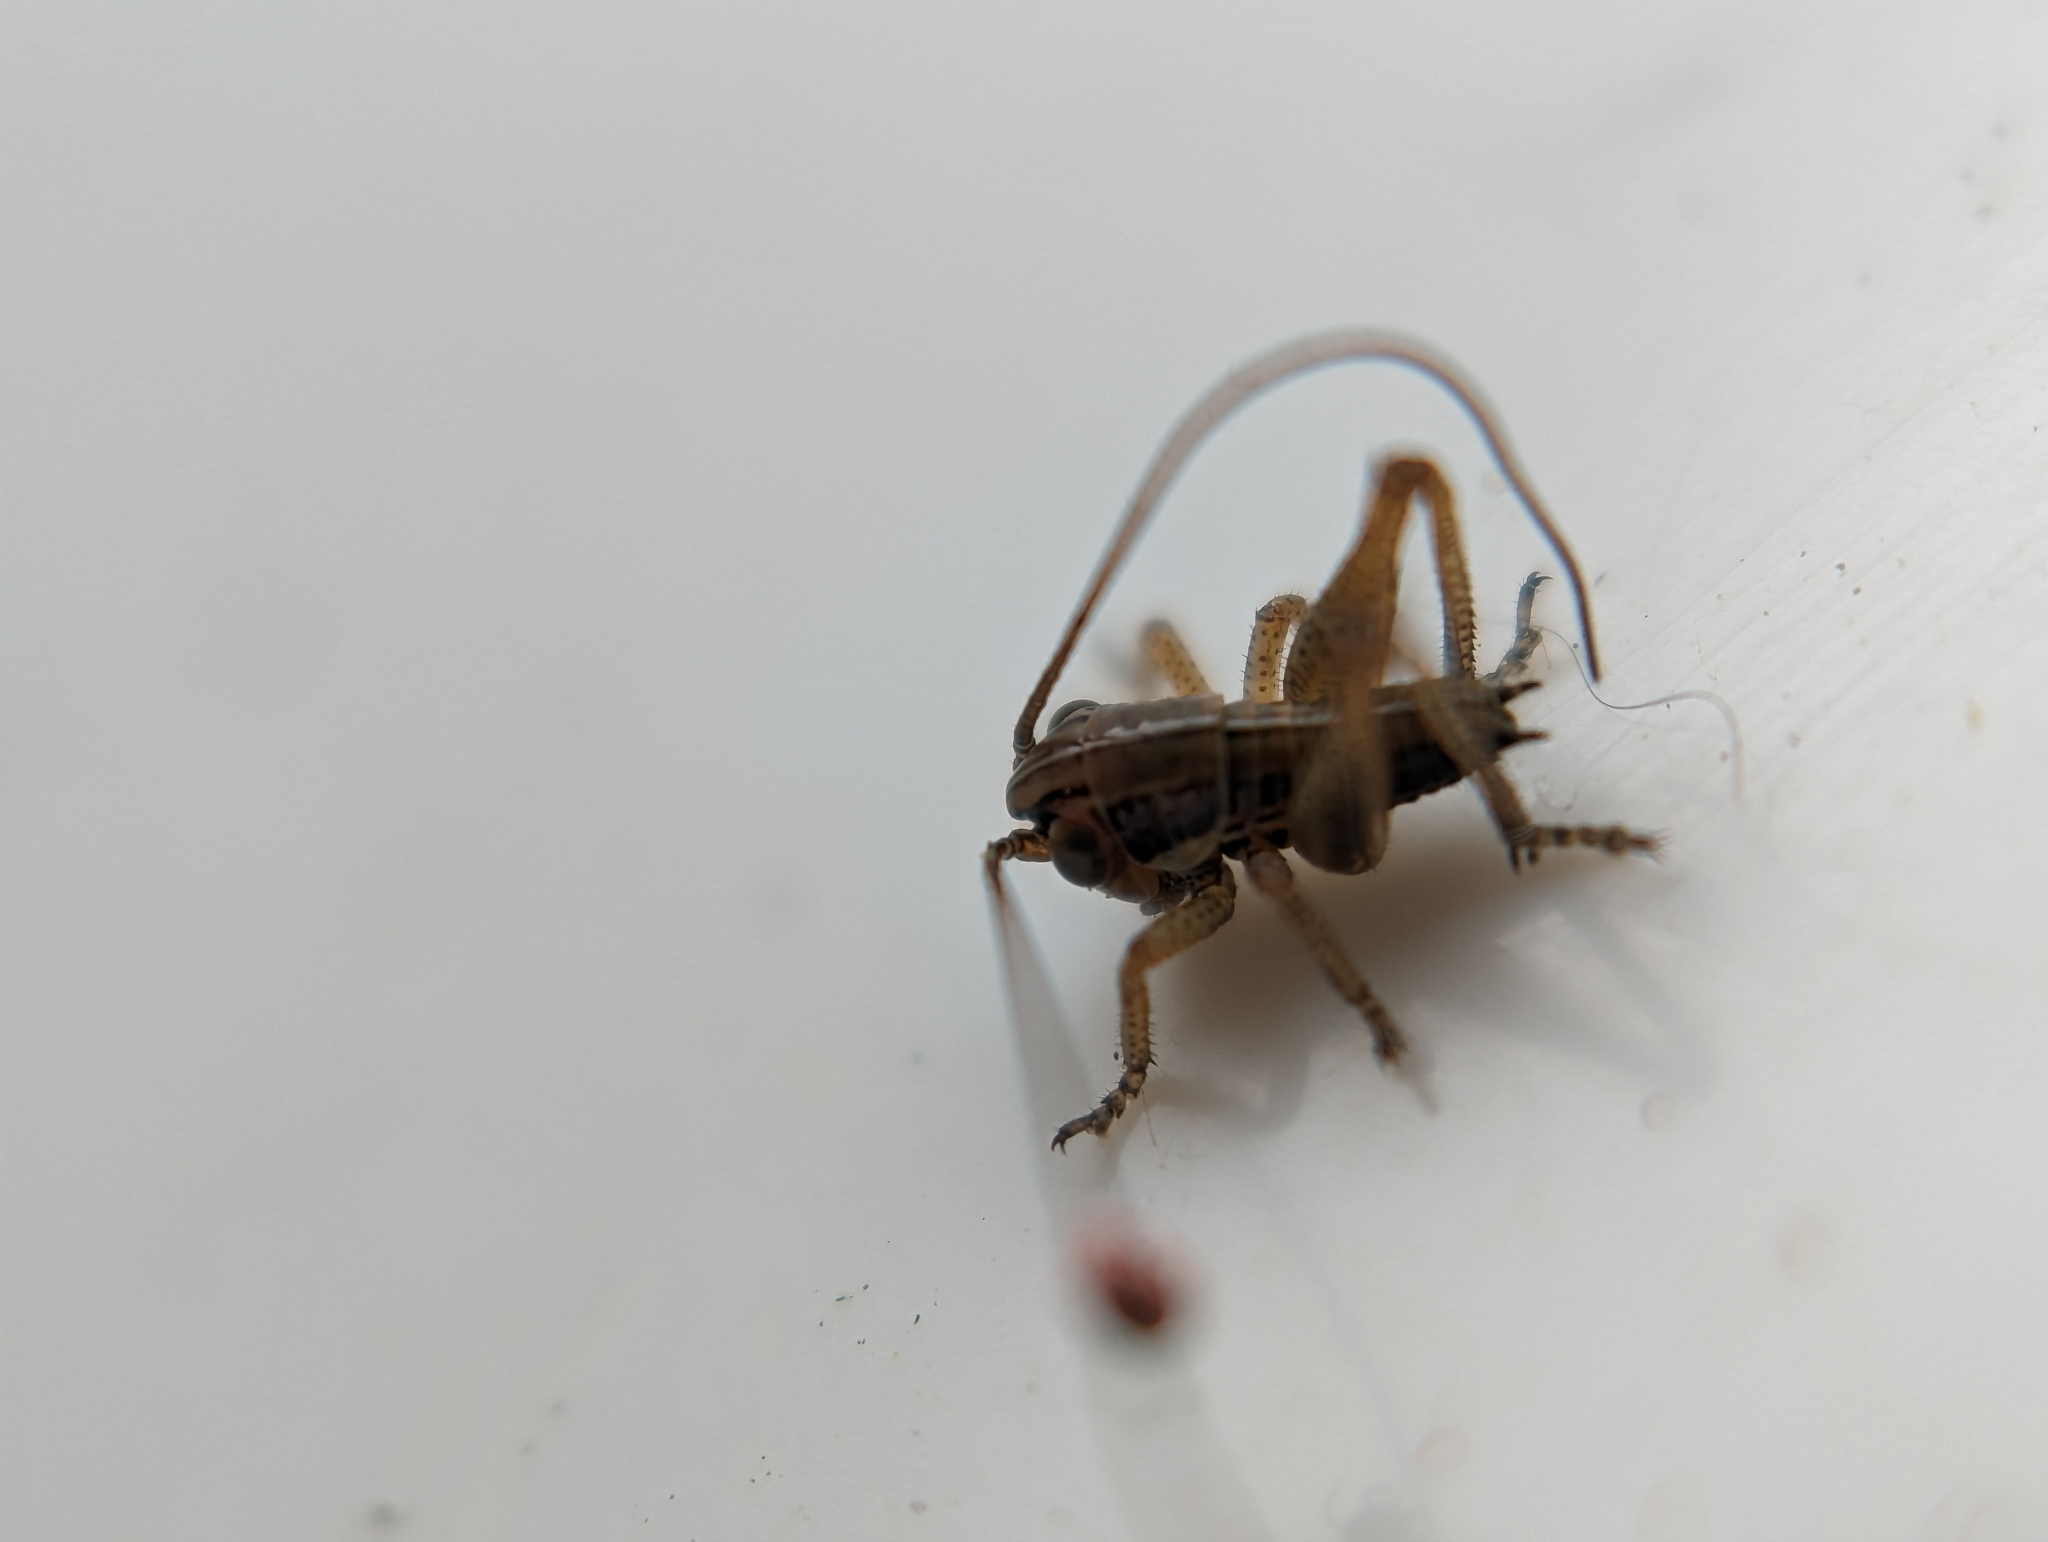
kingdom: Animalia
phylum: Arthropoda
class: Insecta
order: Orthoptera
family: Tettigoniidae
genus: Roeseliana
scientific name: Roeseliana roeselii
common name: Roesel's bush cricket
